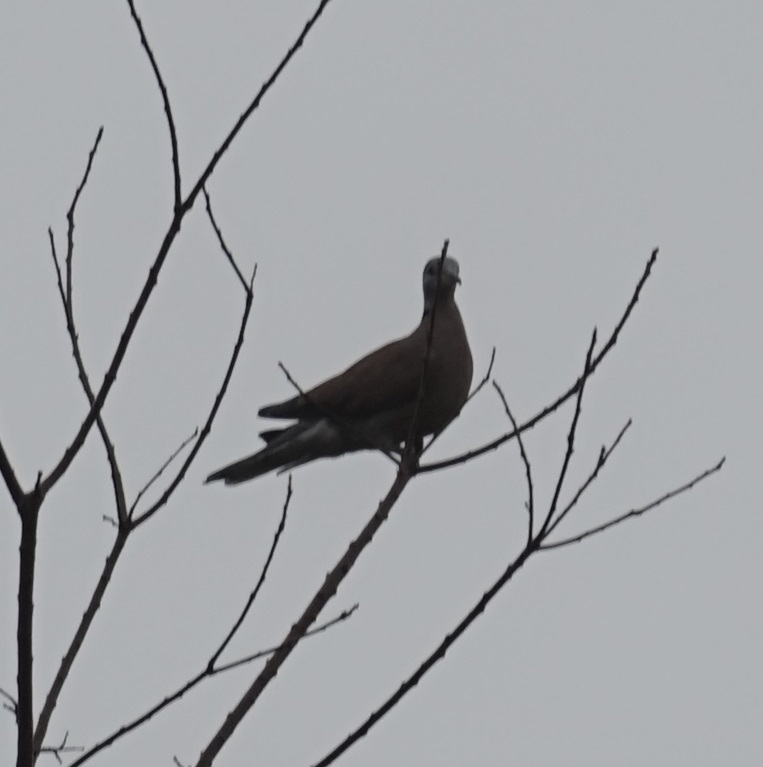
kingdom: Animalia
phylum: Chordata
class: Aves
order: Columbiformes
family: Columbidae
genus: Streptopelia
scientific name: Streptopelia tranquebarica
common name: Red turtle dove
